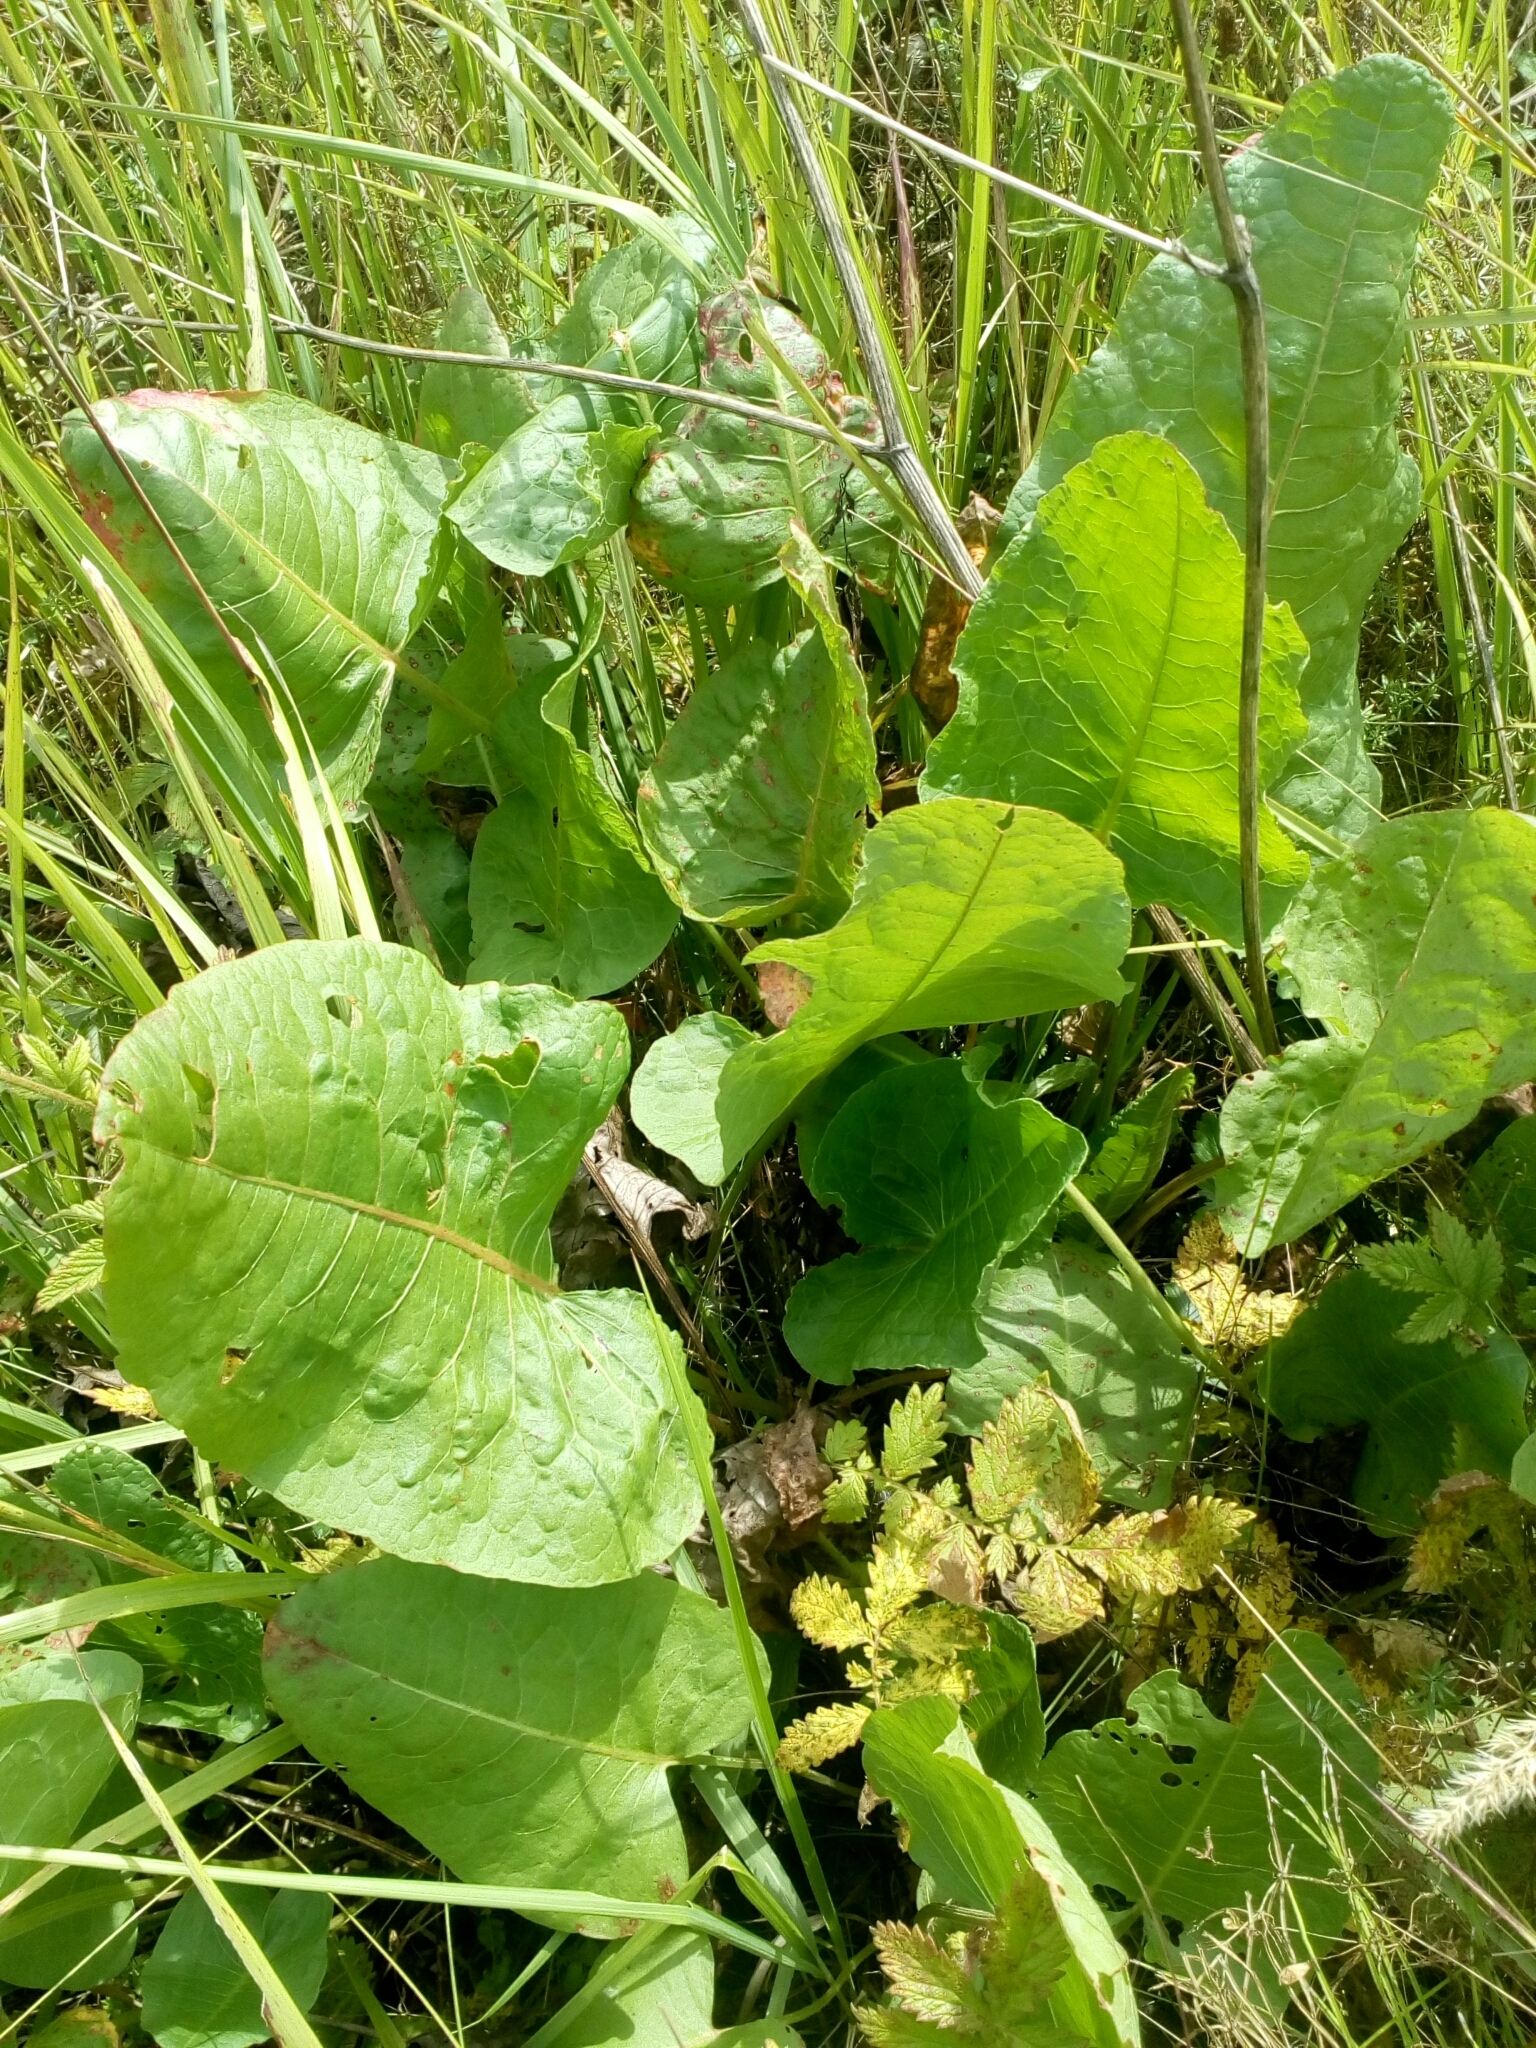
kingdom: Plantae
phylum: Tracheophyta
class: Magnoliopsida
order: Caryophyllales
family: Polygonaceae
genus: Rumex
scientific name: Rumex obtusifolius
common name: Bitter dock
